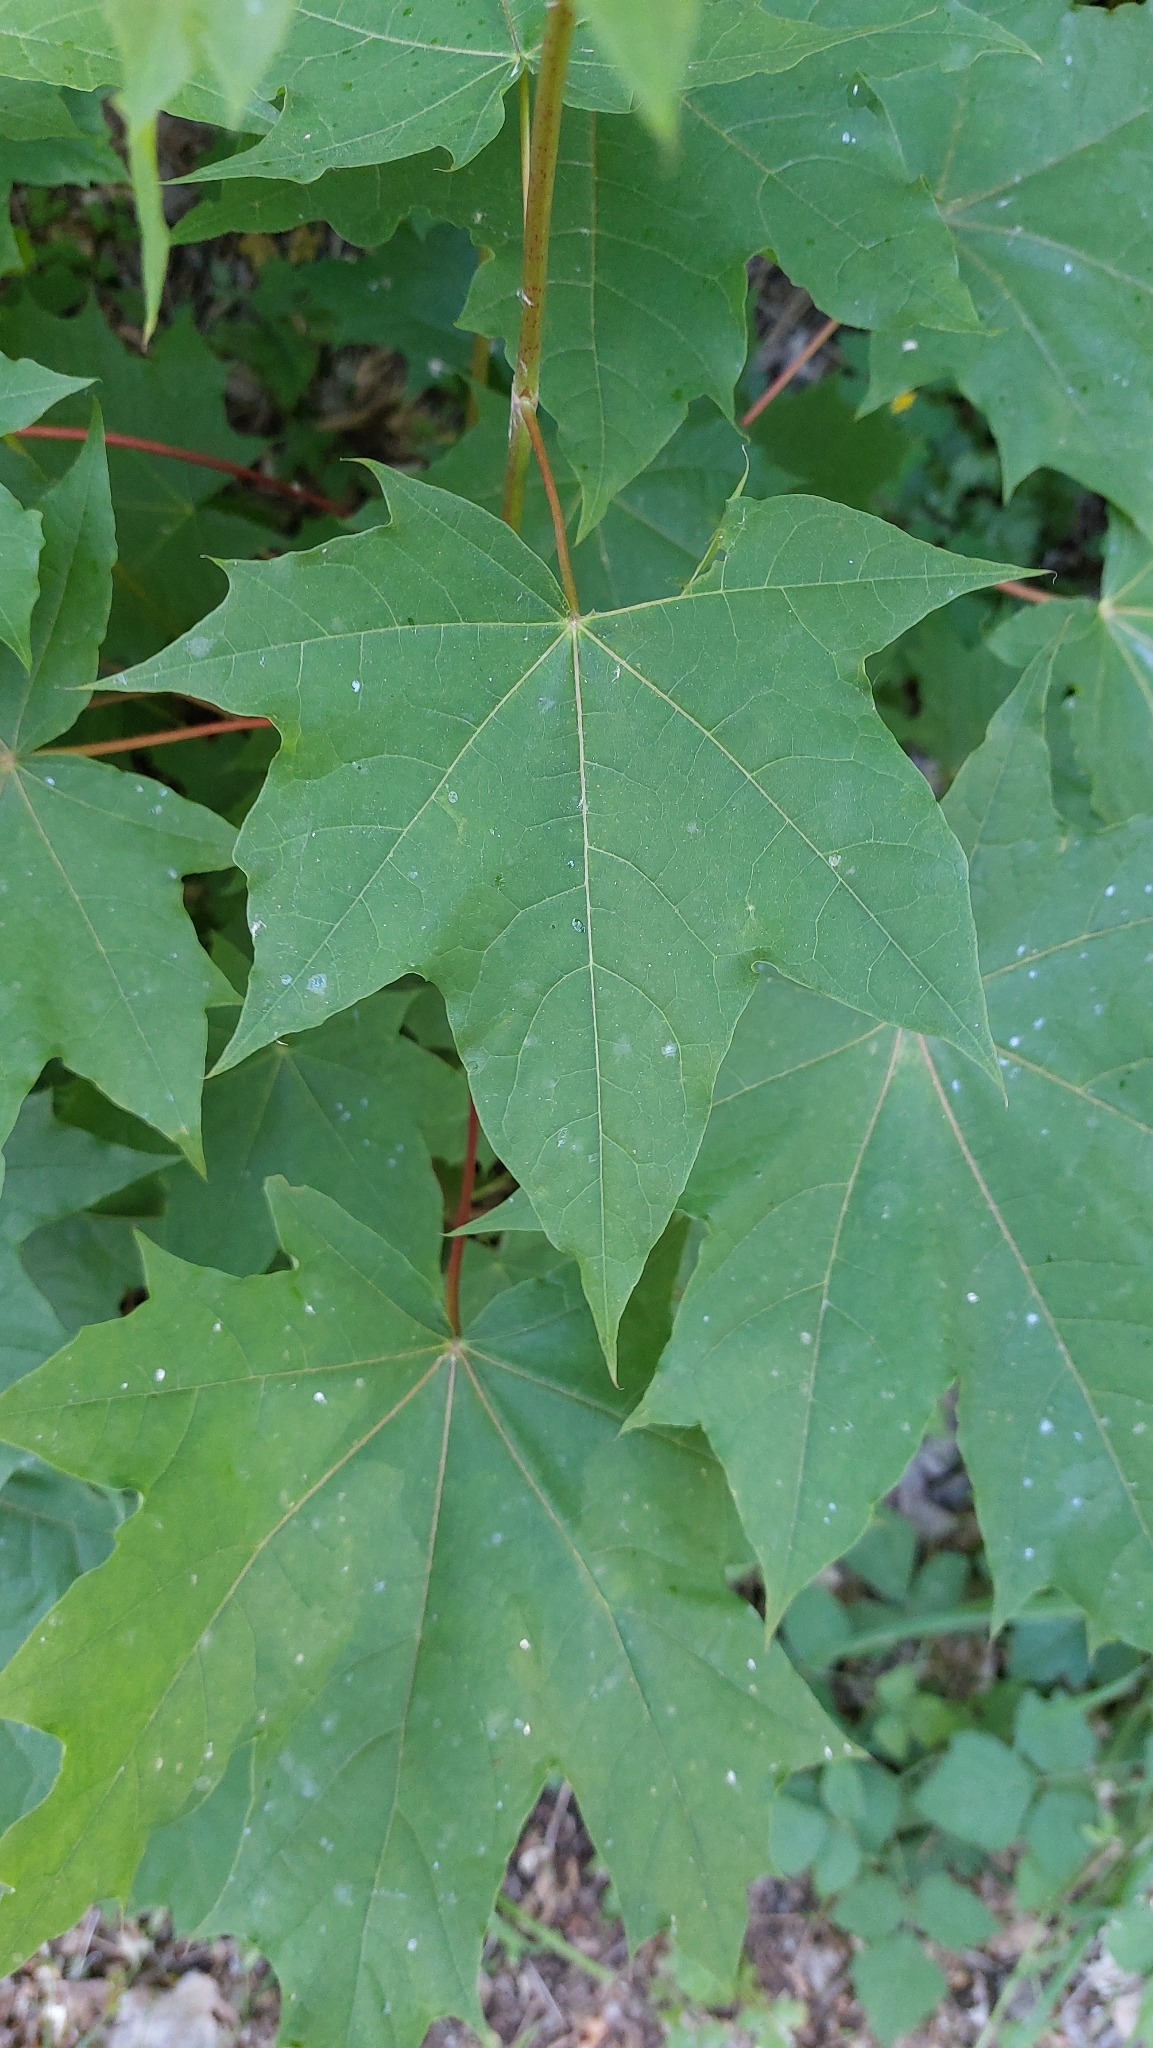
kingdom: Plantae
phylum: Tracheophyta
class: Magnoliopsida
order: Sapindales
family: Sapindaceae
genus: Acer
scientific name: Acer platanoides
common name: Norway maple
